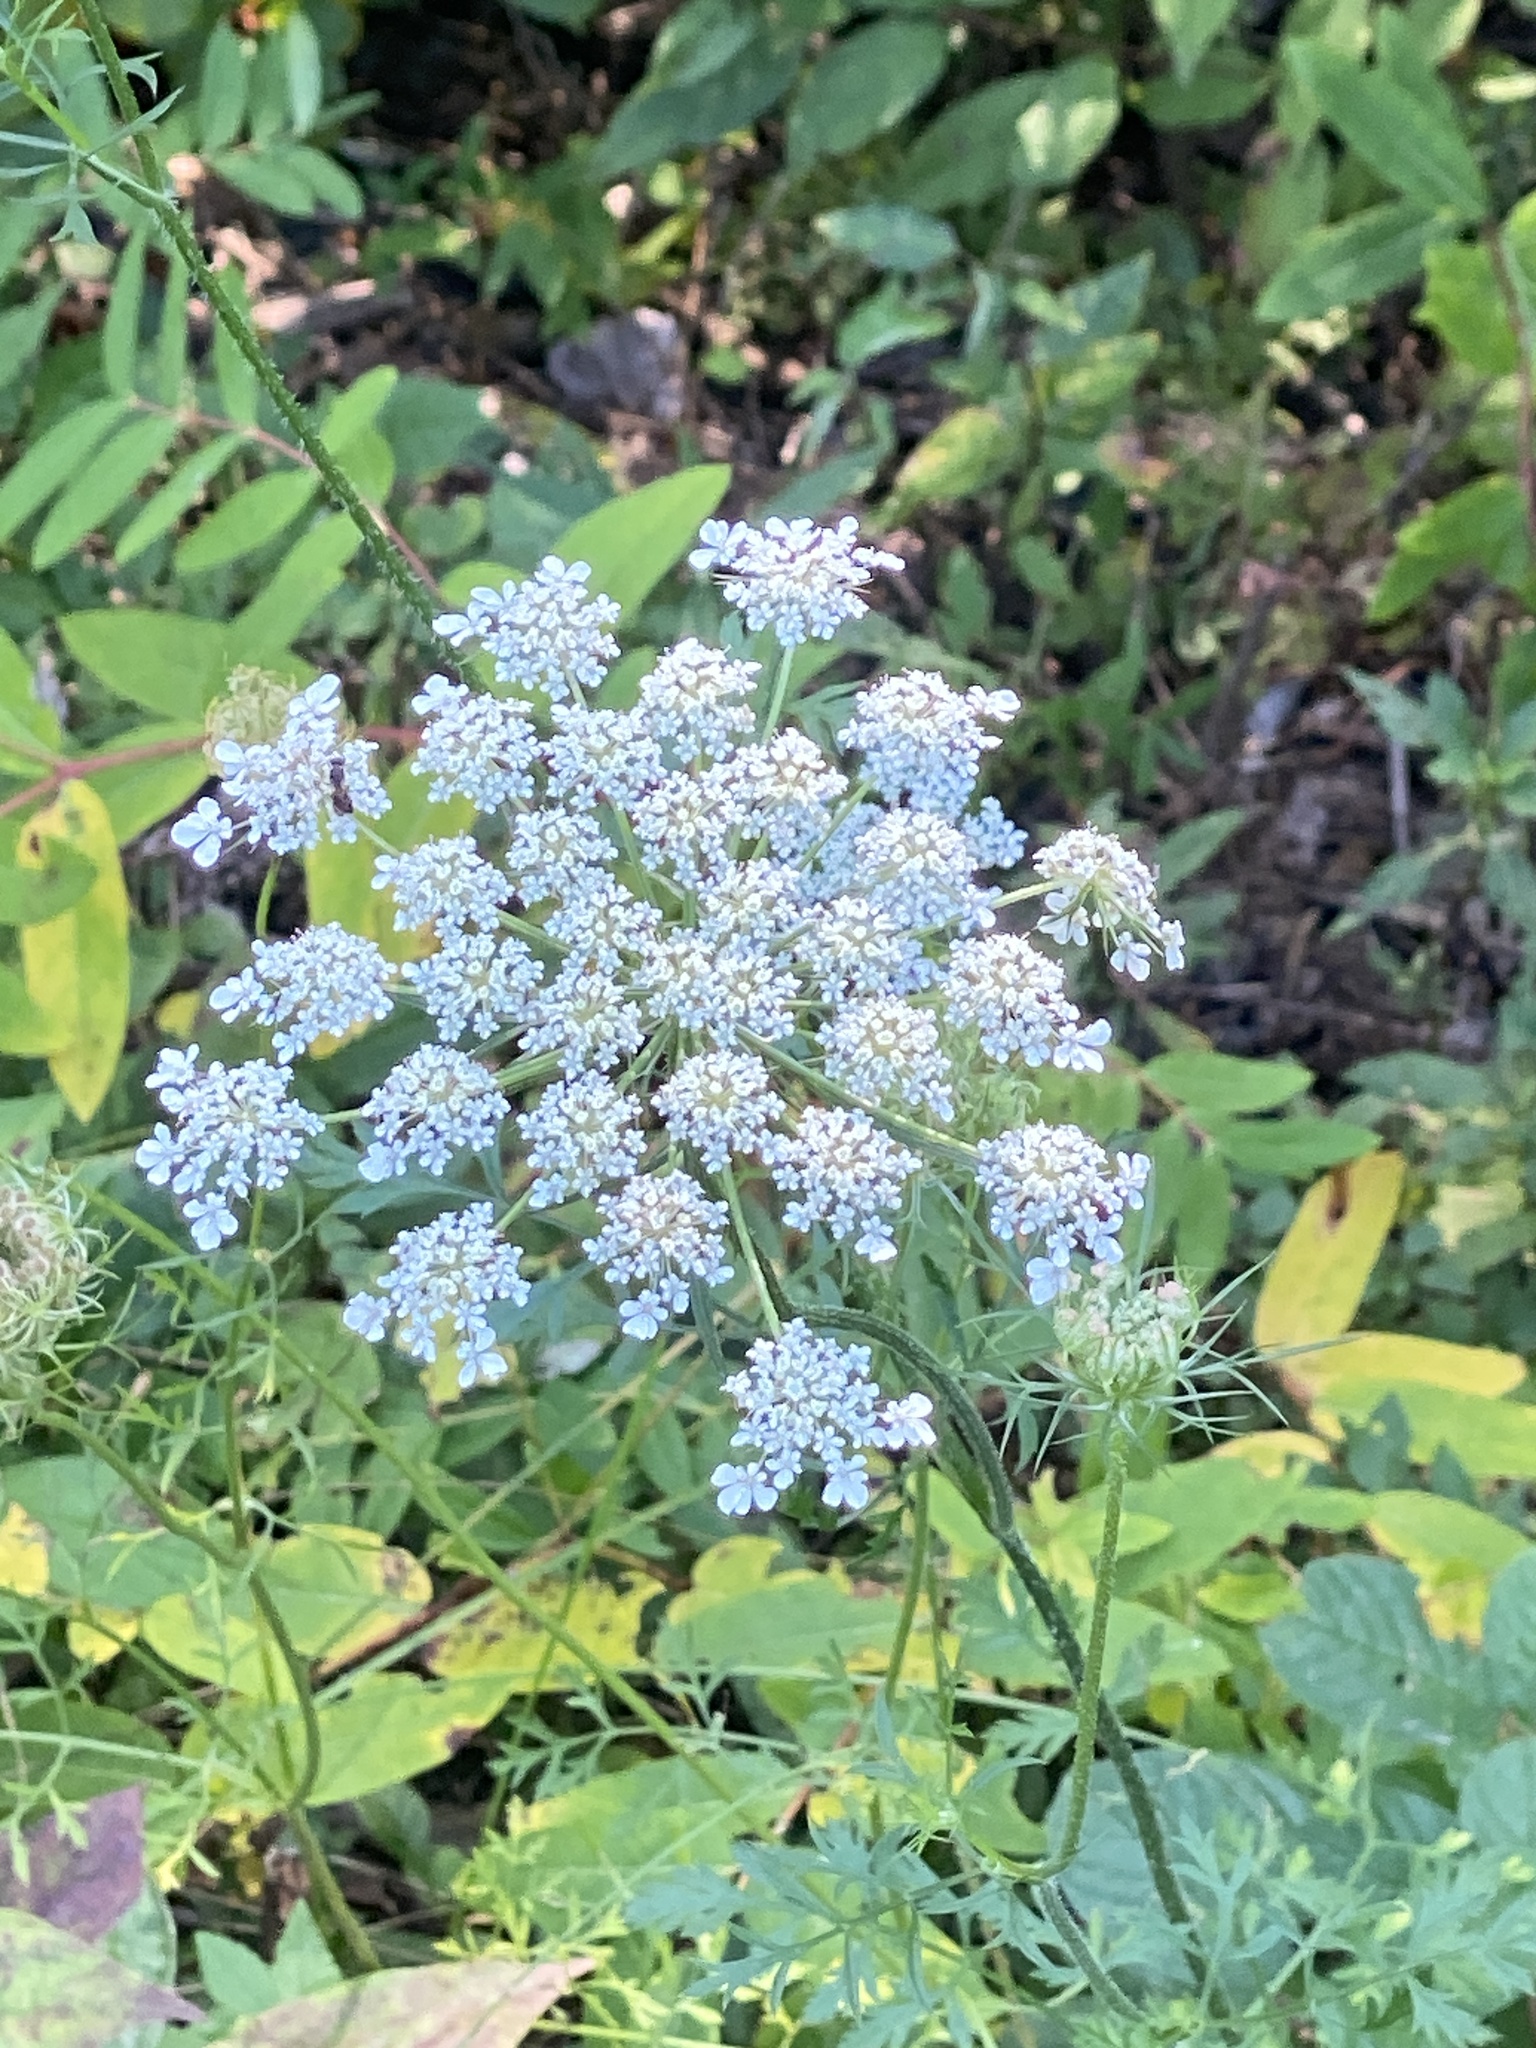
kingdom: Plantae
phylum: Tracheophyta
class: Magnoliopsida
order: Apiales
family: Apiaceae
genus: Daucus
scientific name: Daucus carota
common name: Wild carrot
